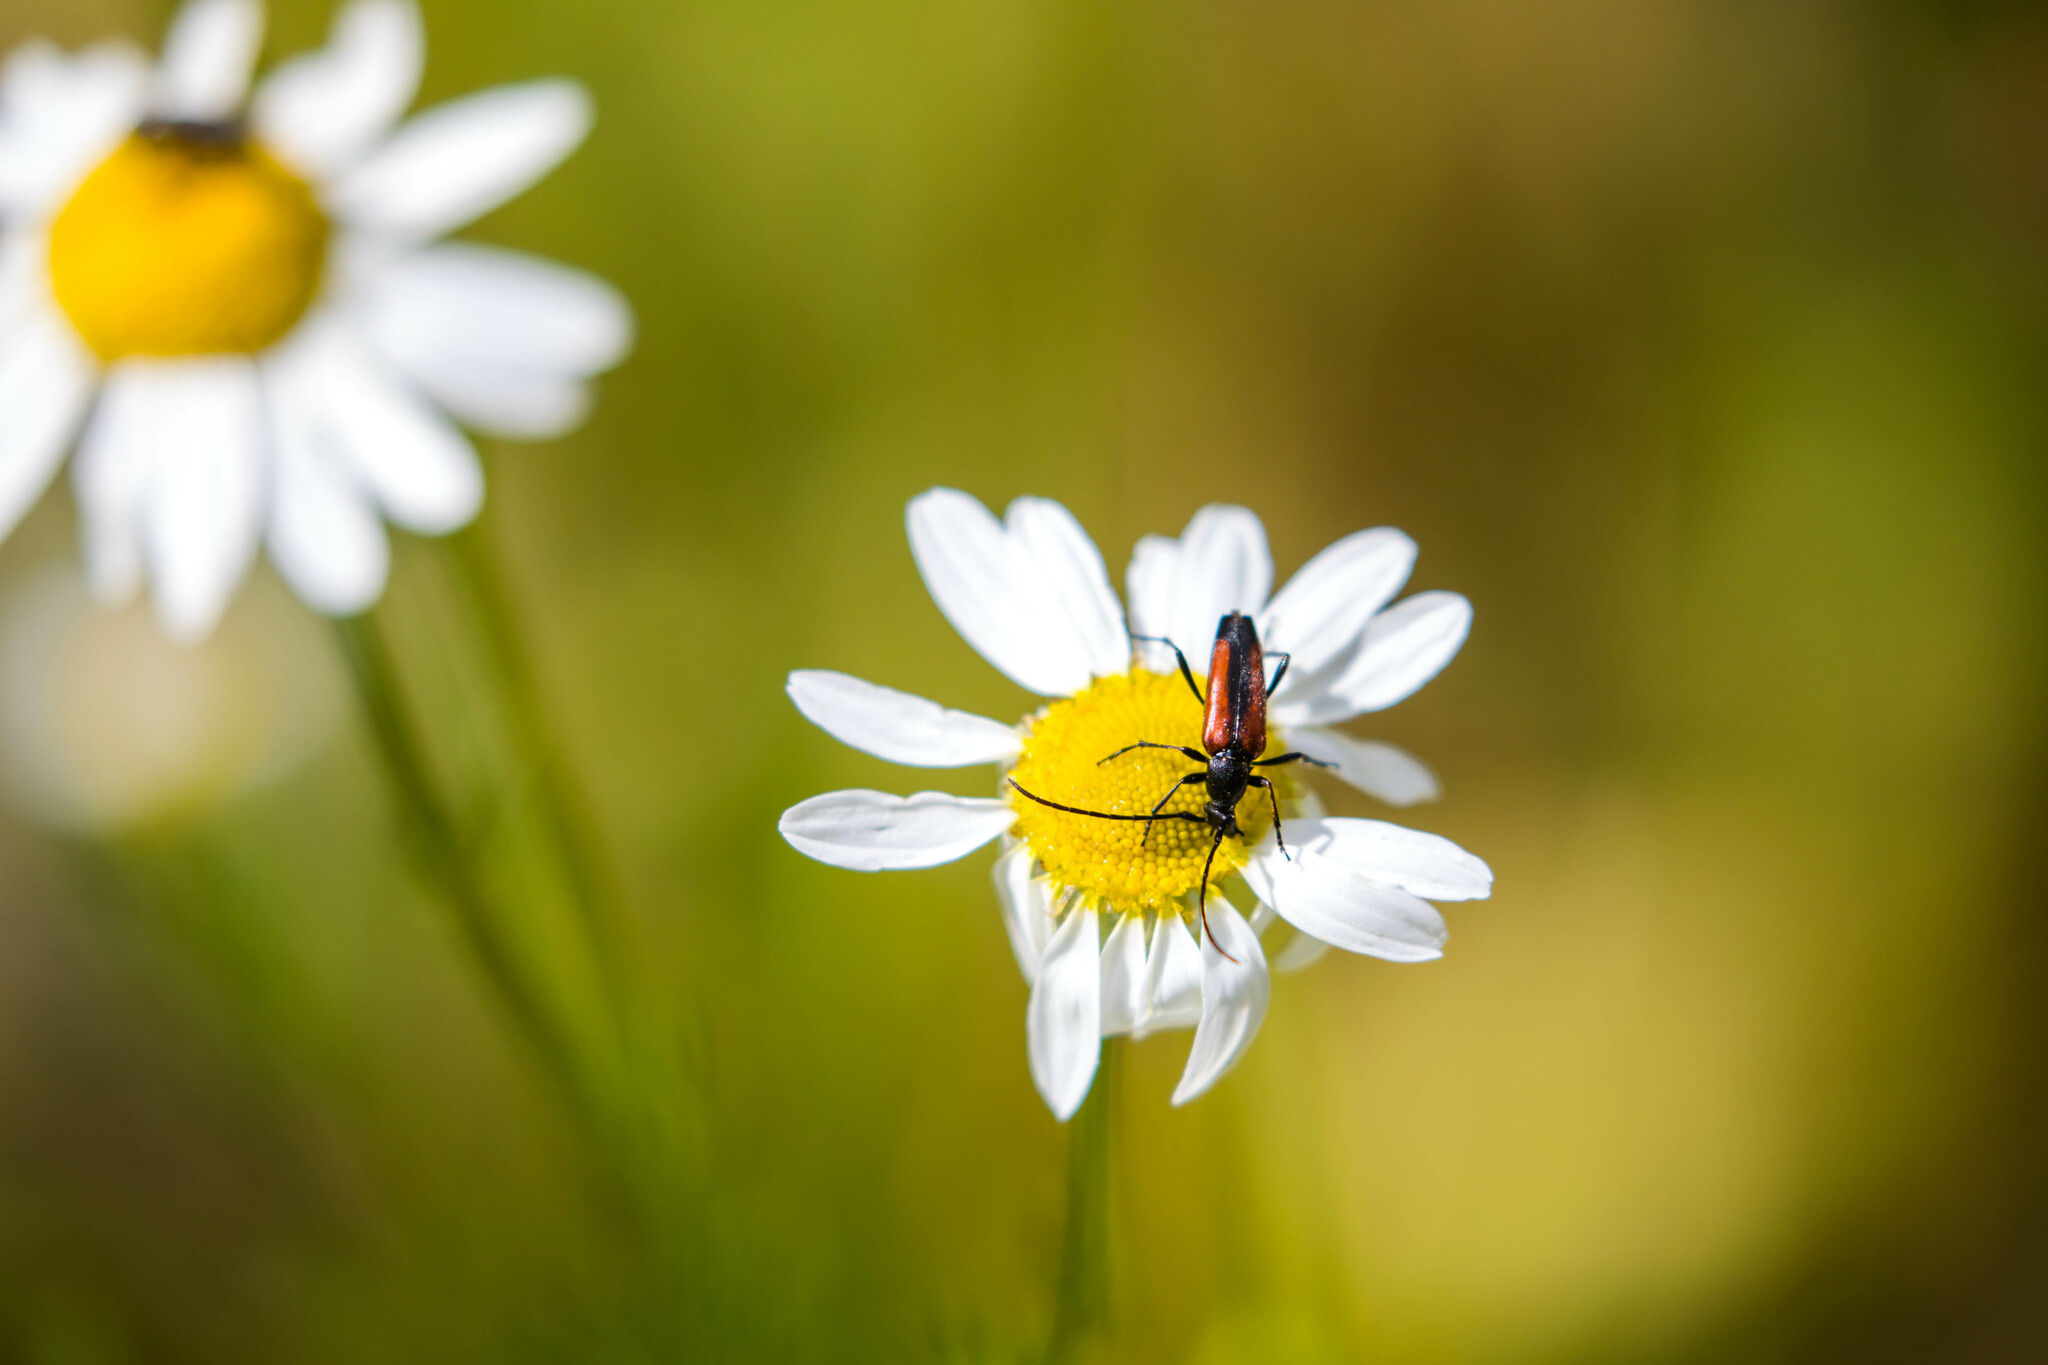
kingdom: Animalia
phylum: Arthropoda
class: Insecta
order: Coleoptera
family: Cerambycidae
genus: Stenurella
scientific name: Stenurella melanura
